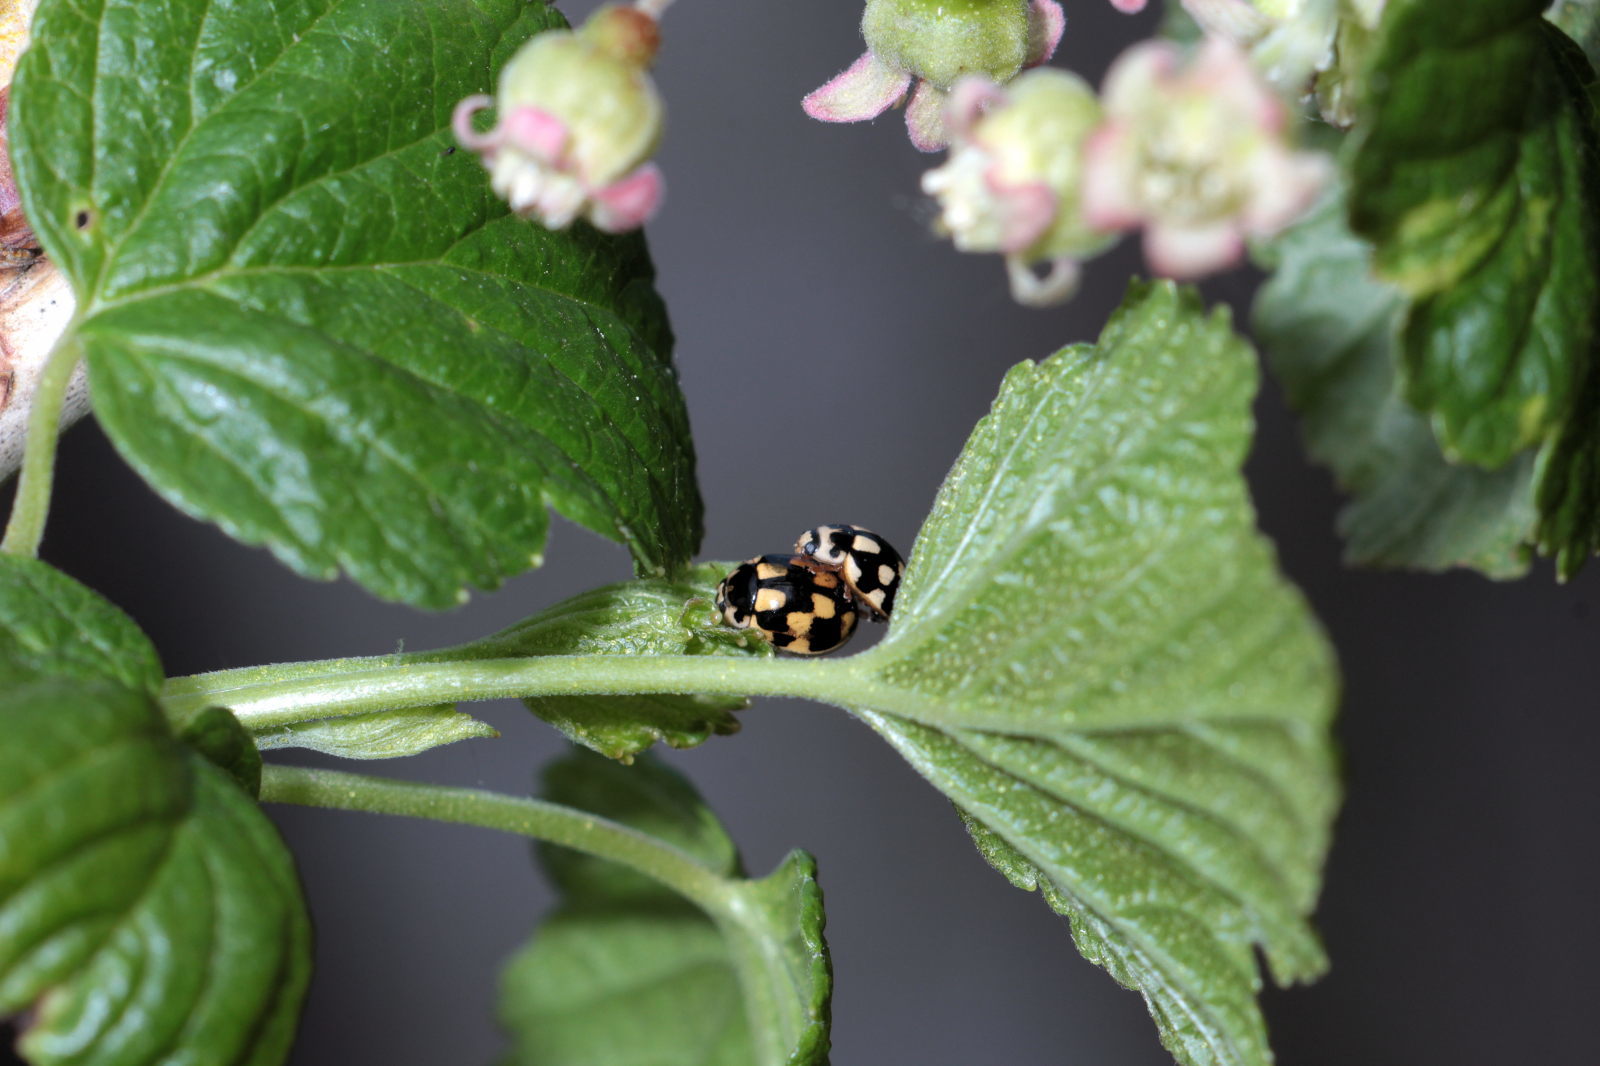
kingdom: Animalia
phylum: Arthropoda
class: Insecta
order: Coleoptera
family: Coccinellidae
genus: Propylaea
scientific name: Propylaea quatuordecimpunctata
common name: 14-spotted ladybird beetle
